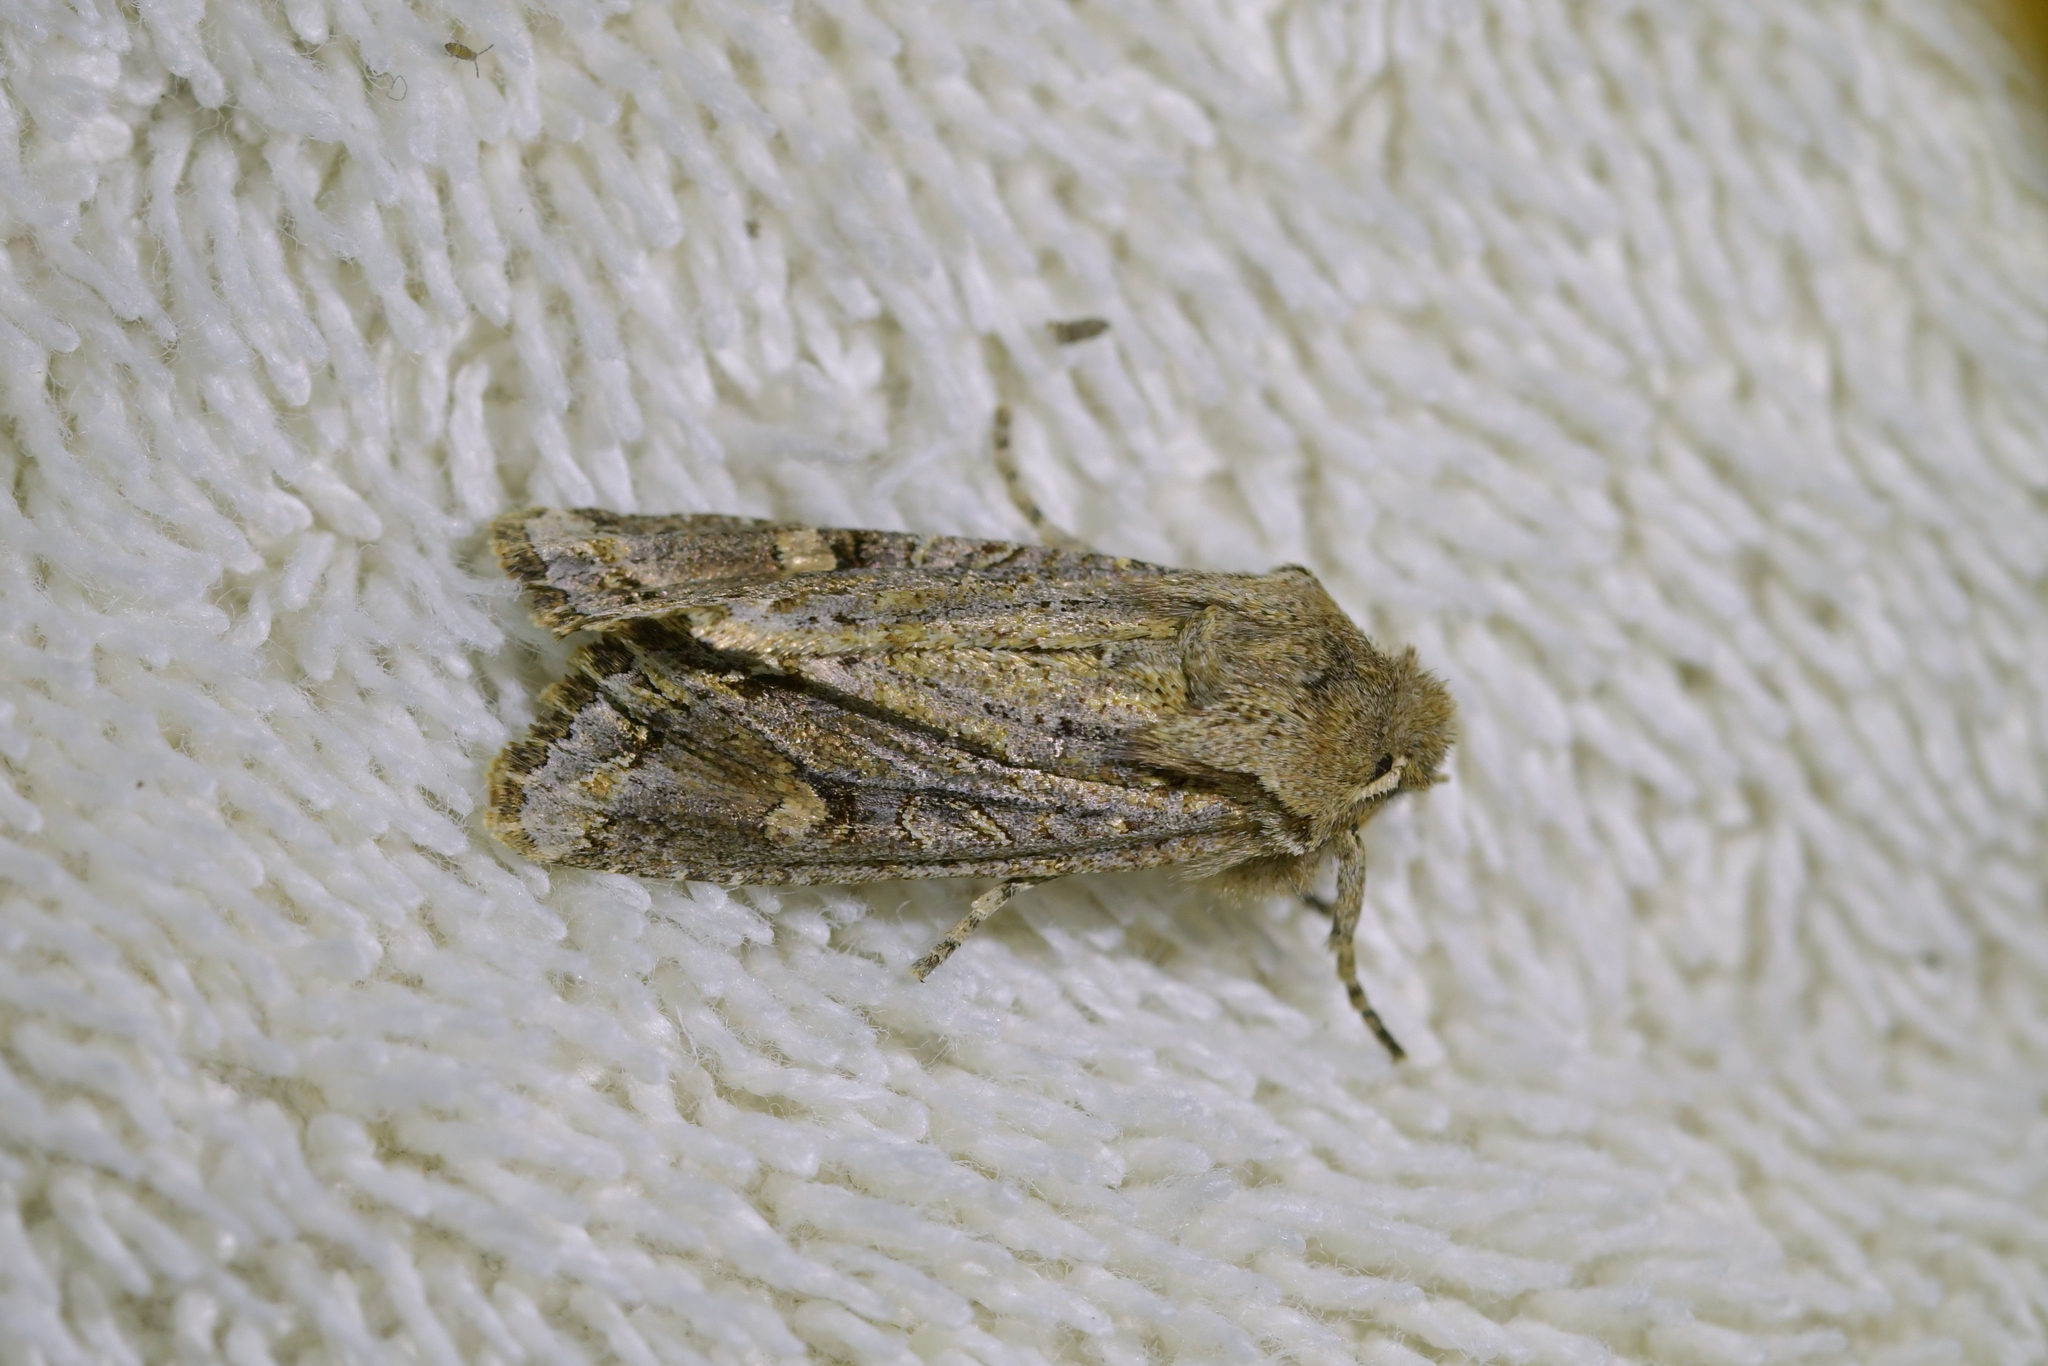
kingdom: Animalia
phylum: Arthropoda
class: Insecta
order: Lepidoptera
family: Noctuidae
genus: Ichneutica
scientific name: Ichneutica
